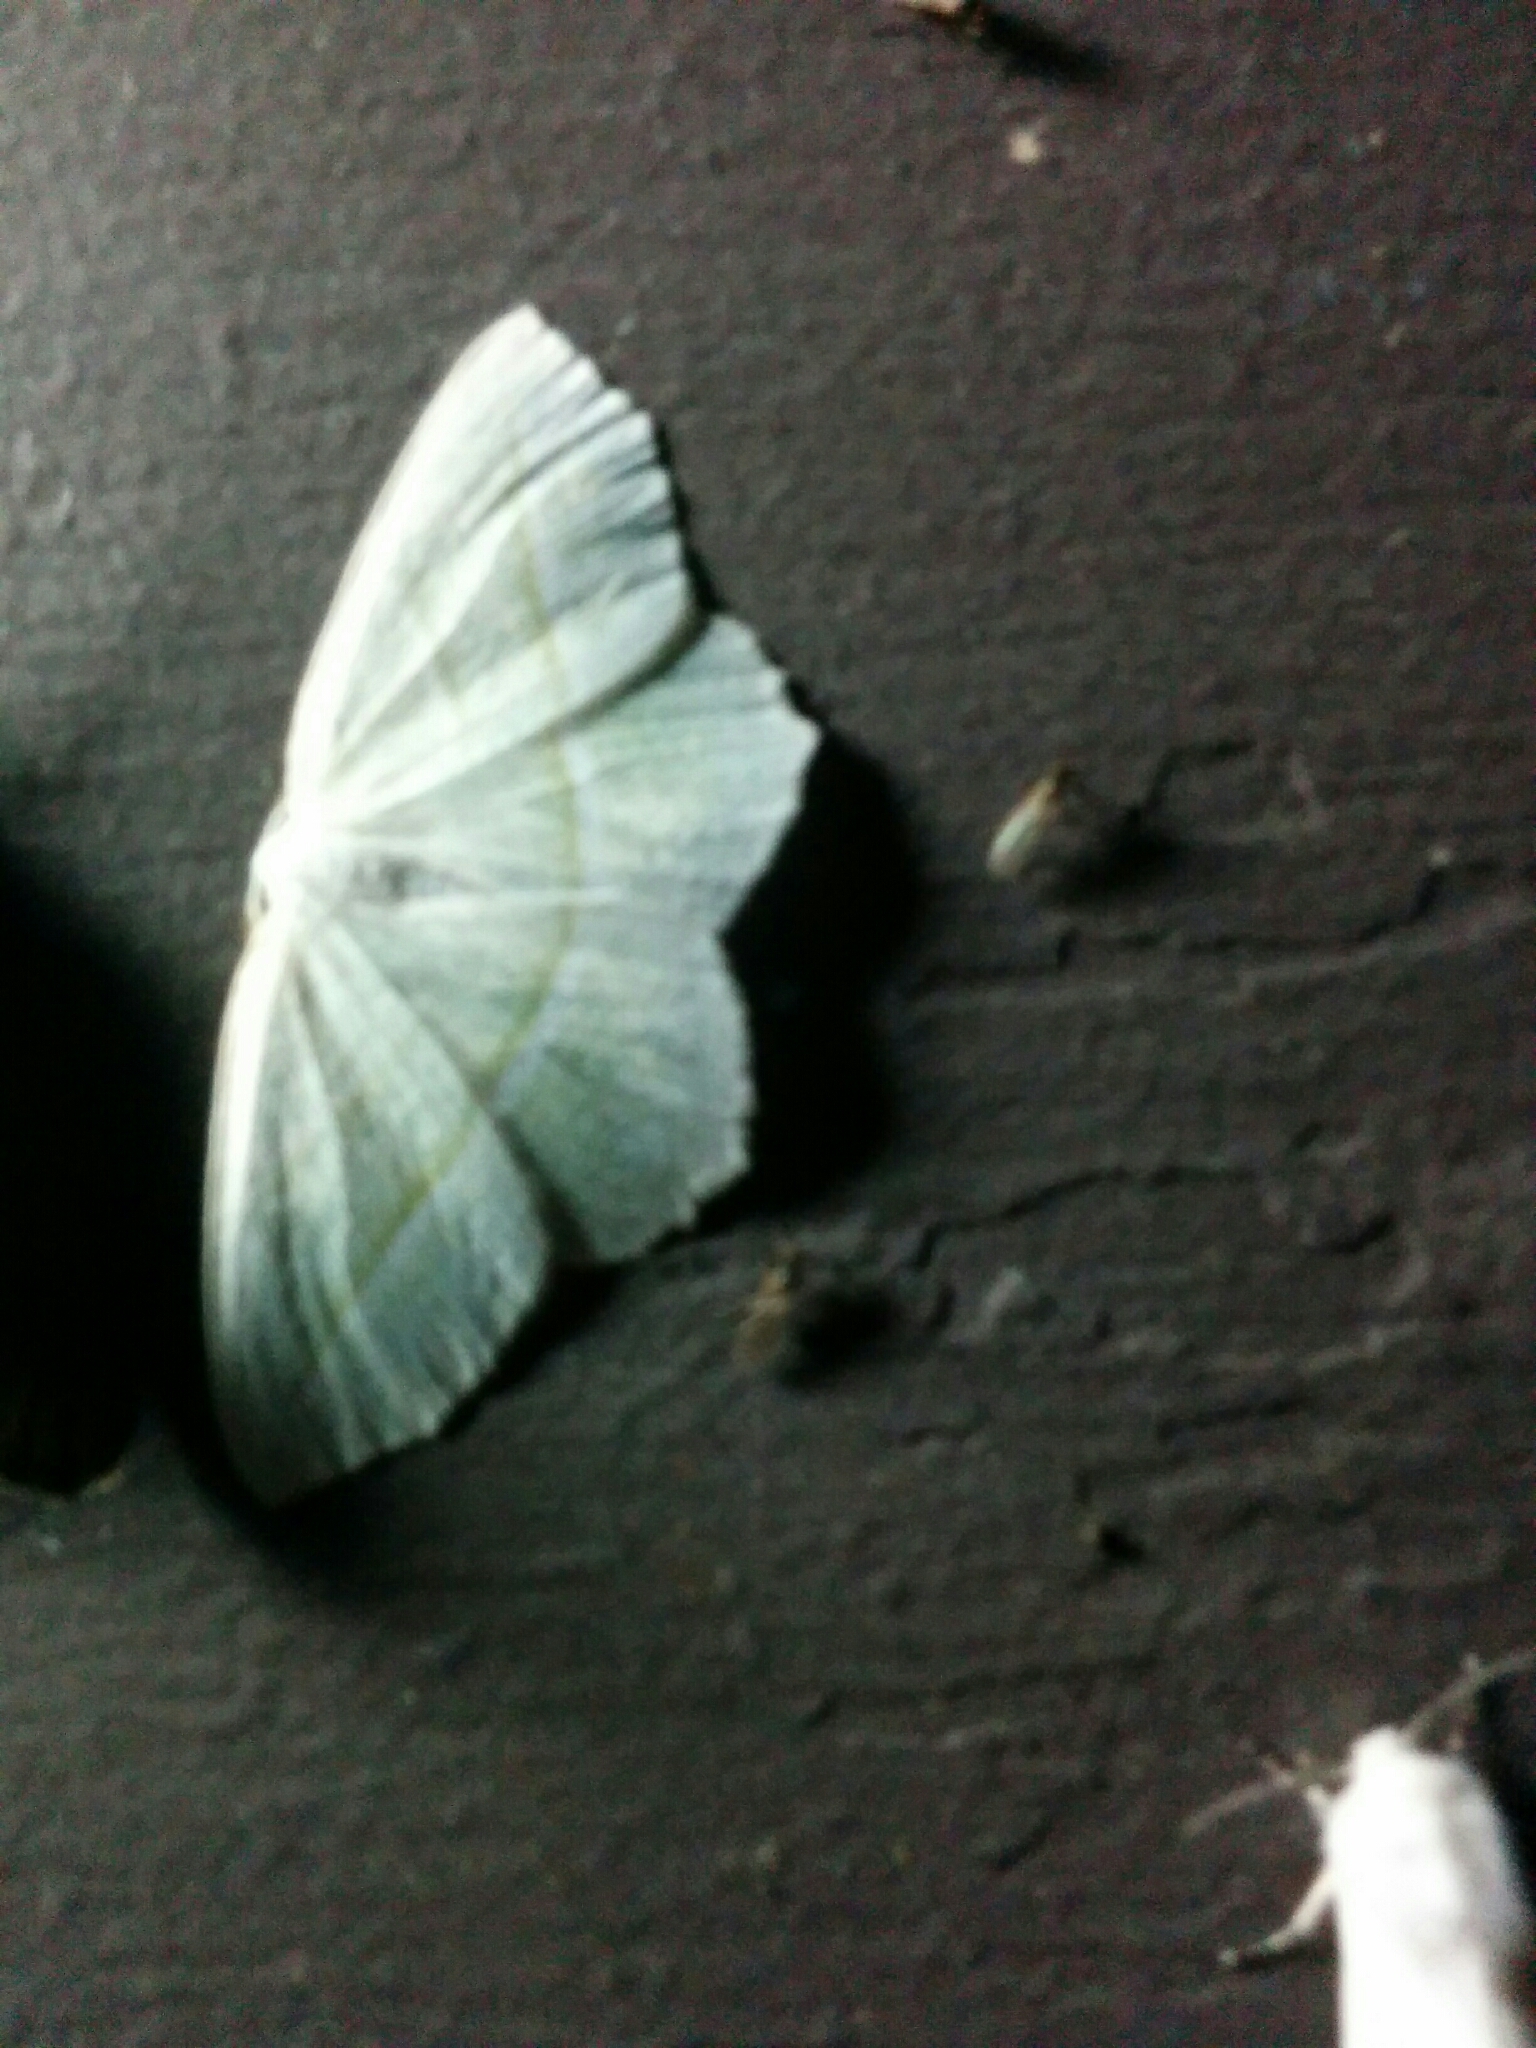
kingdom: Animalia
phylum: Arthropoda
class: Insecta
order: Lepidoptera
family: Geometridae
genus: Campaea
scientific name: Campaea perlata
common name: Fringed looper
